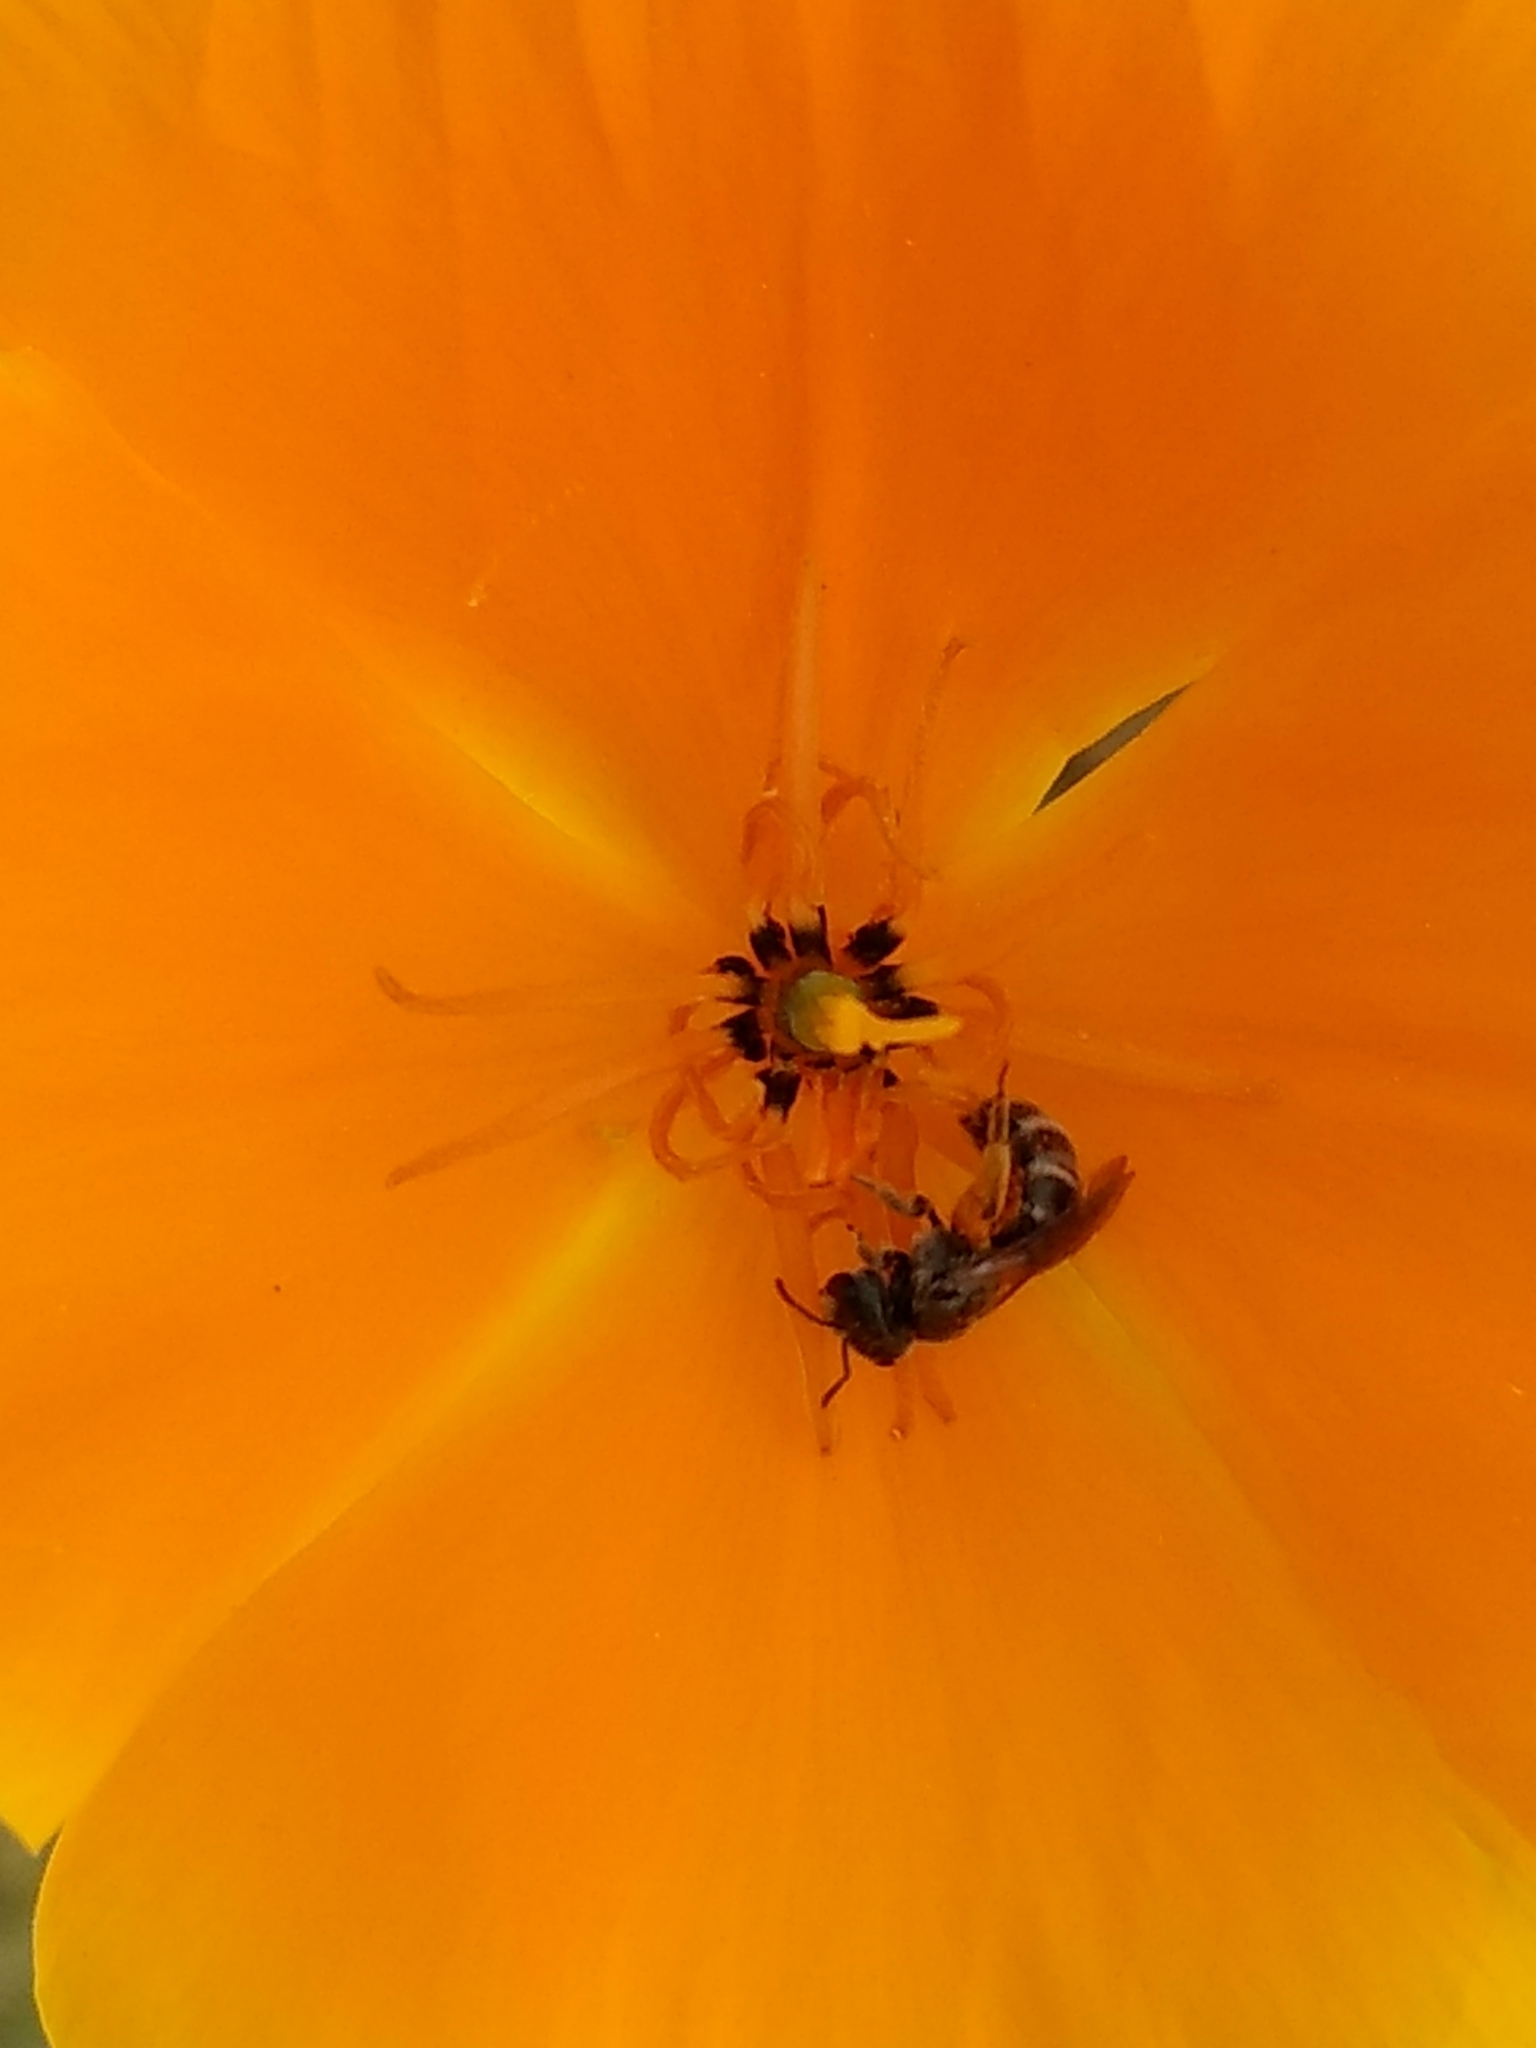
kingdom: Animalia
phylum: Arthropoda
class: Insecta
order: Hymenoptera
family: Halictidae
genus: Halictus
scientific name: Halictus tripartitus
